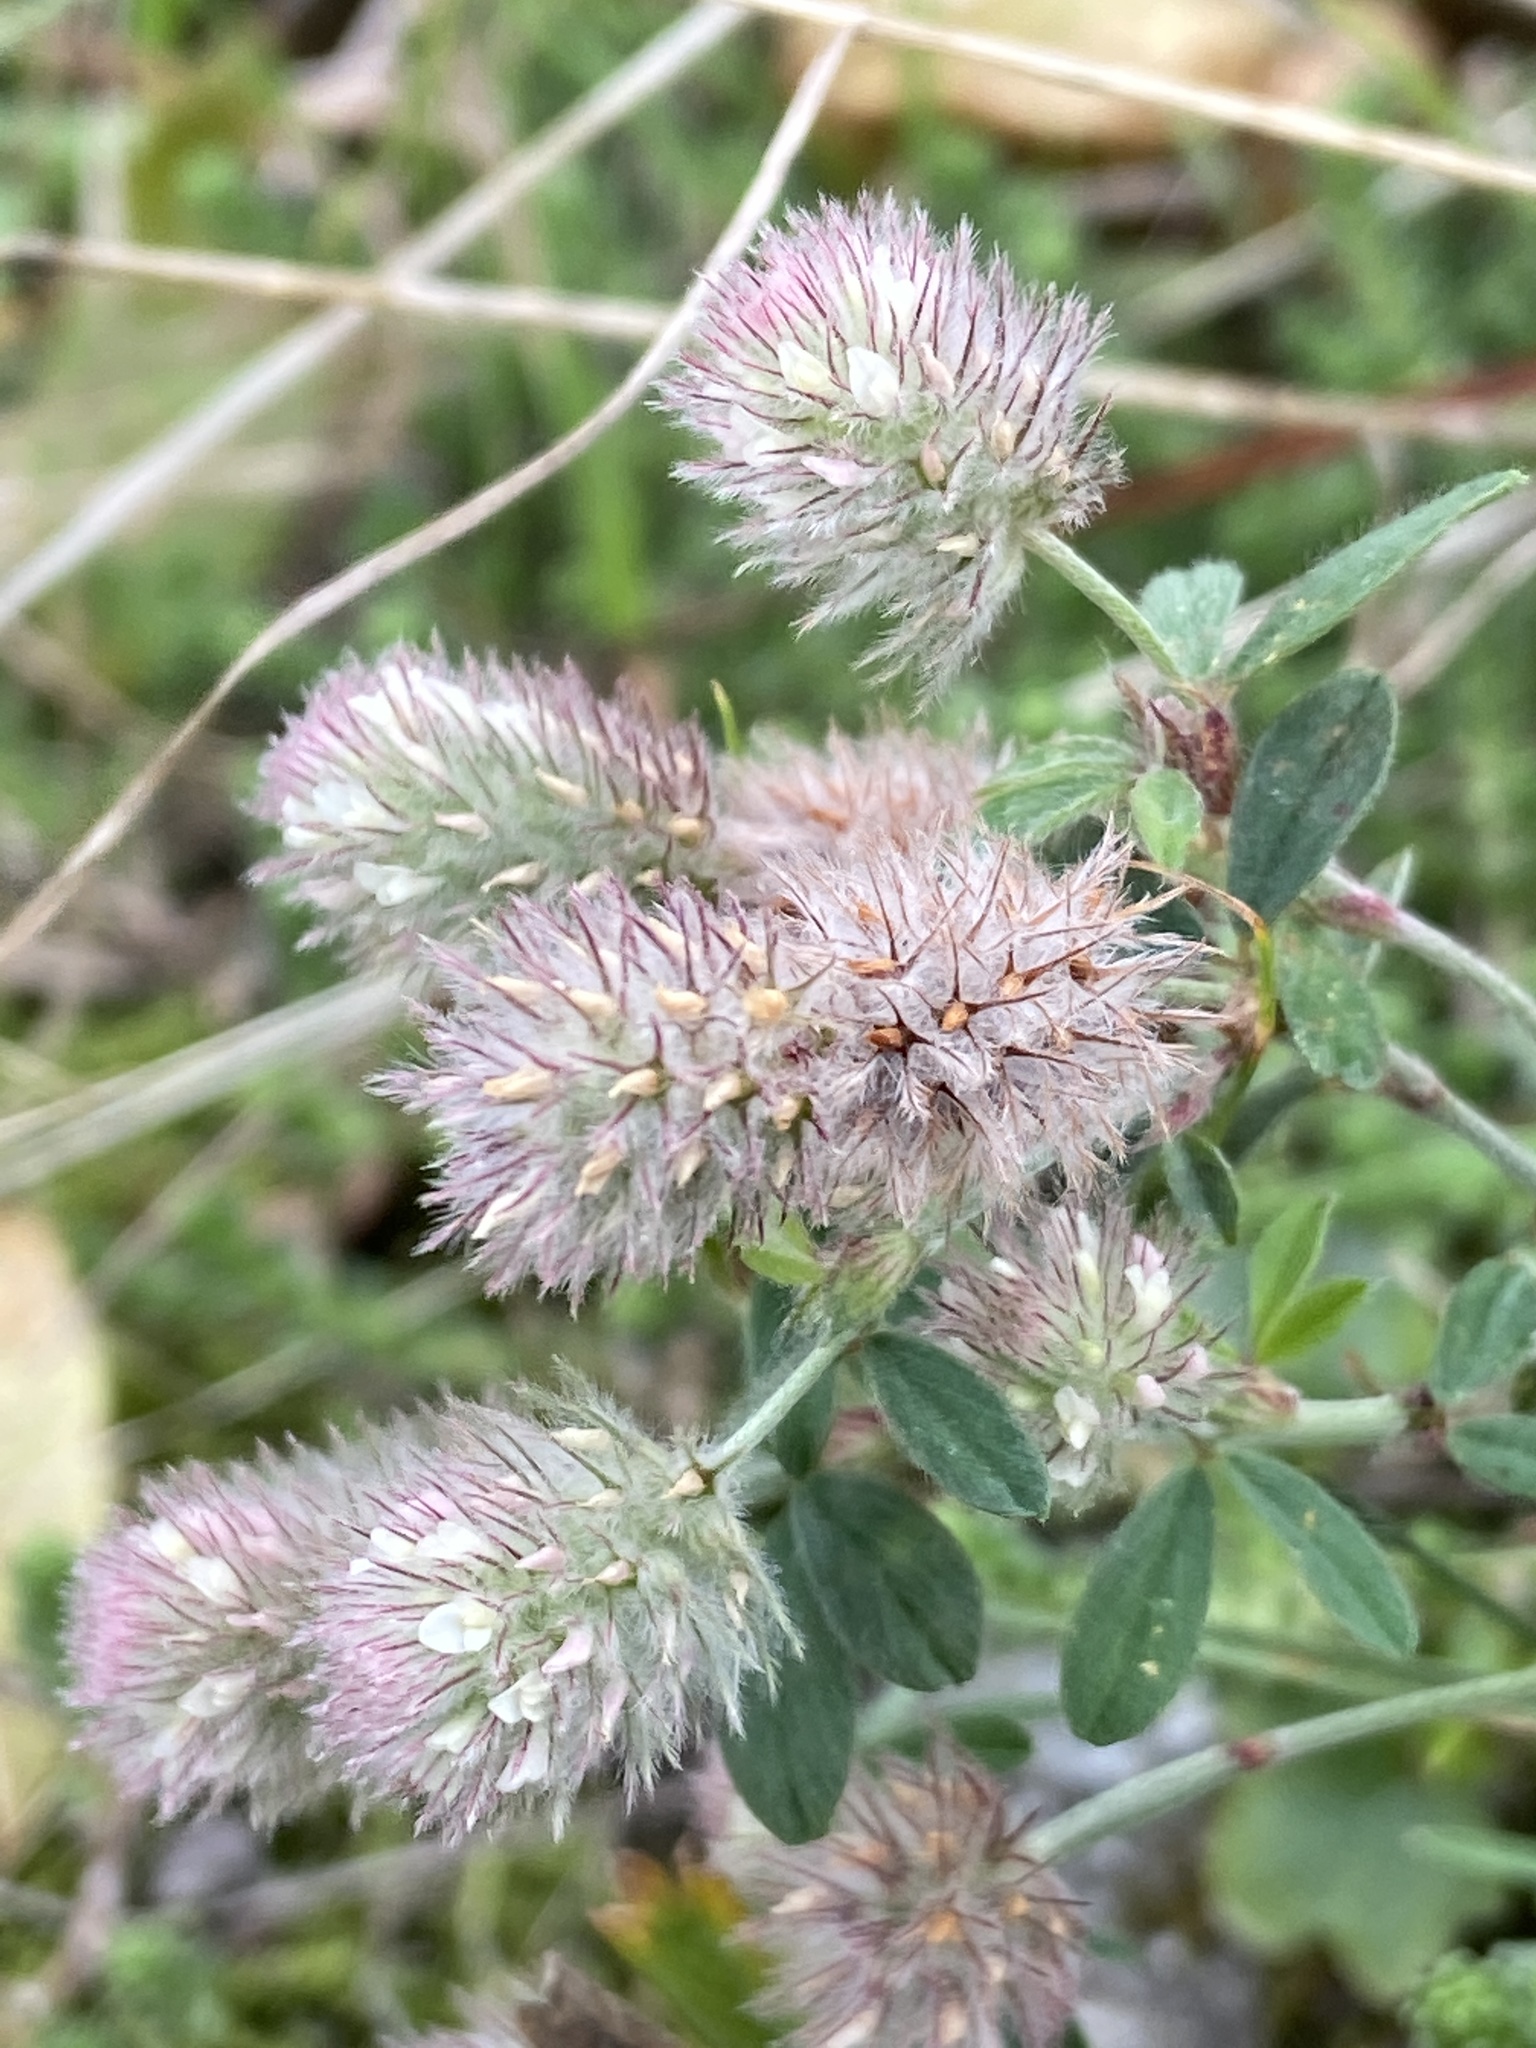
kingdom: Plantae
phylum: Tracheophyta
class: Magnoliopsida
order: Fabales
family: Fabaceae
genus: Trifolium
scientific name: Trifolium arvense
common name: Hare's-foot clover
